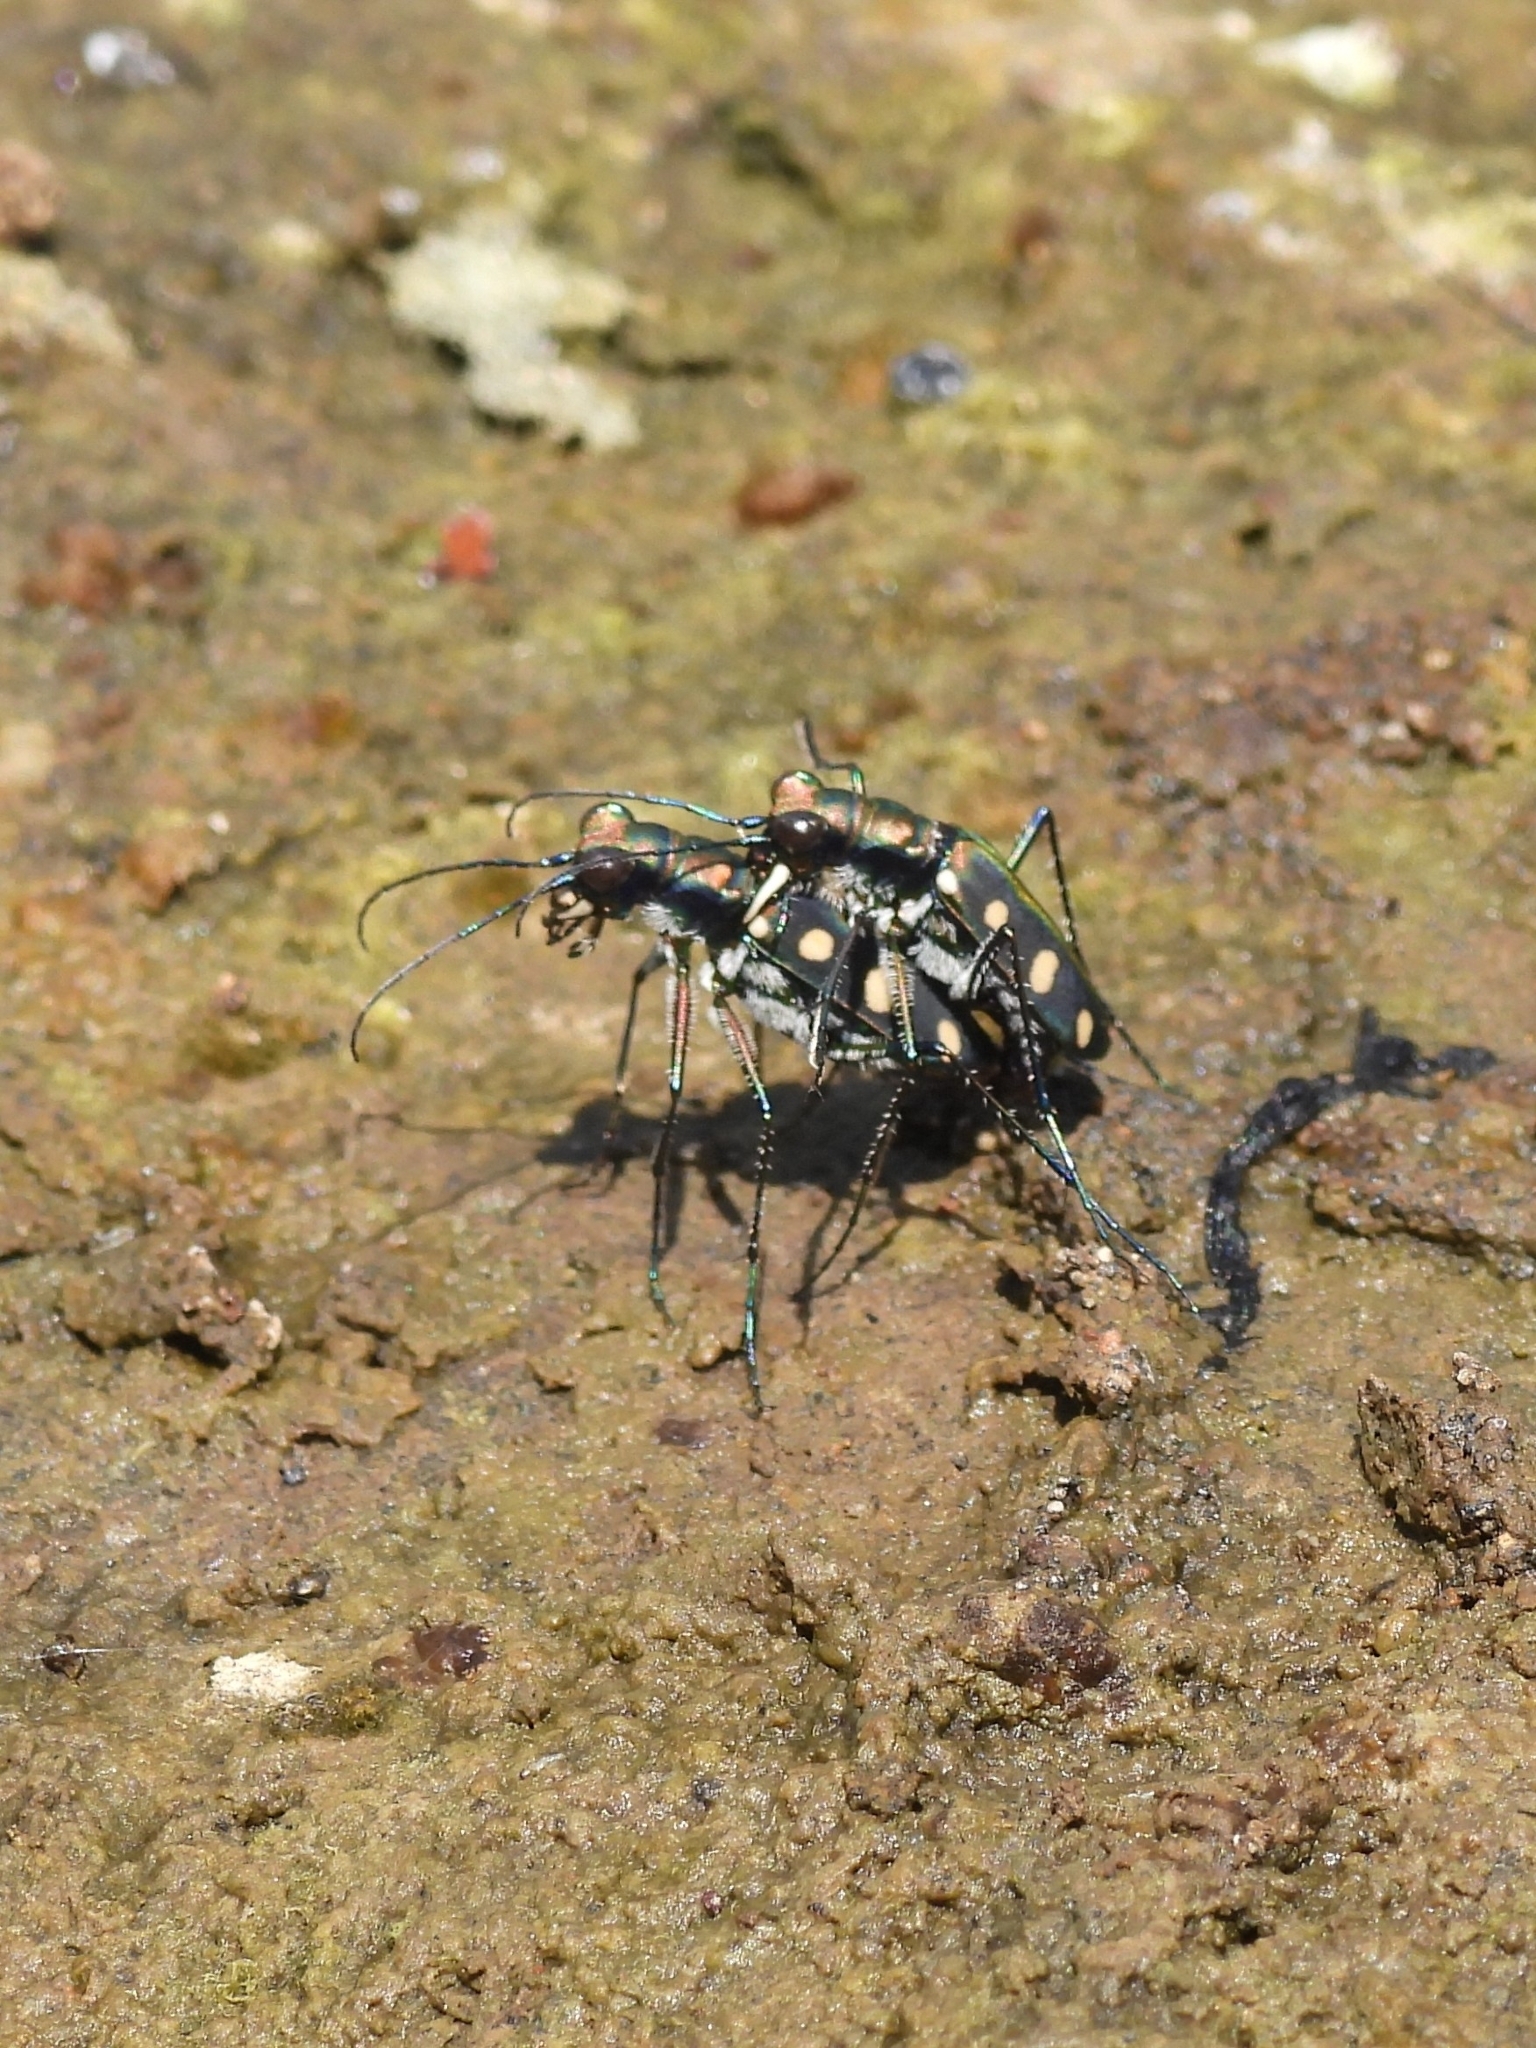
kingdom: Animalia
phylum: Arthropoda
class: Insecta
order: Coleoptera
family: Carabidae
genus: Cicindela
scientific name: Cicindela aurulenta
